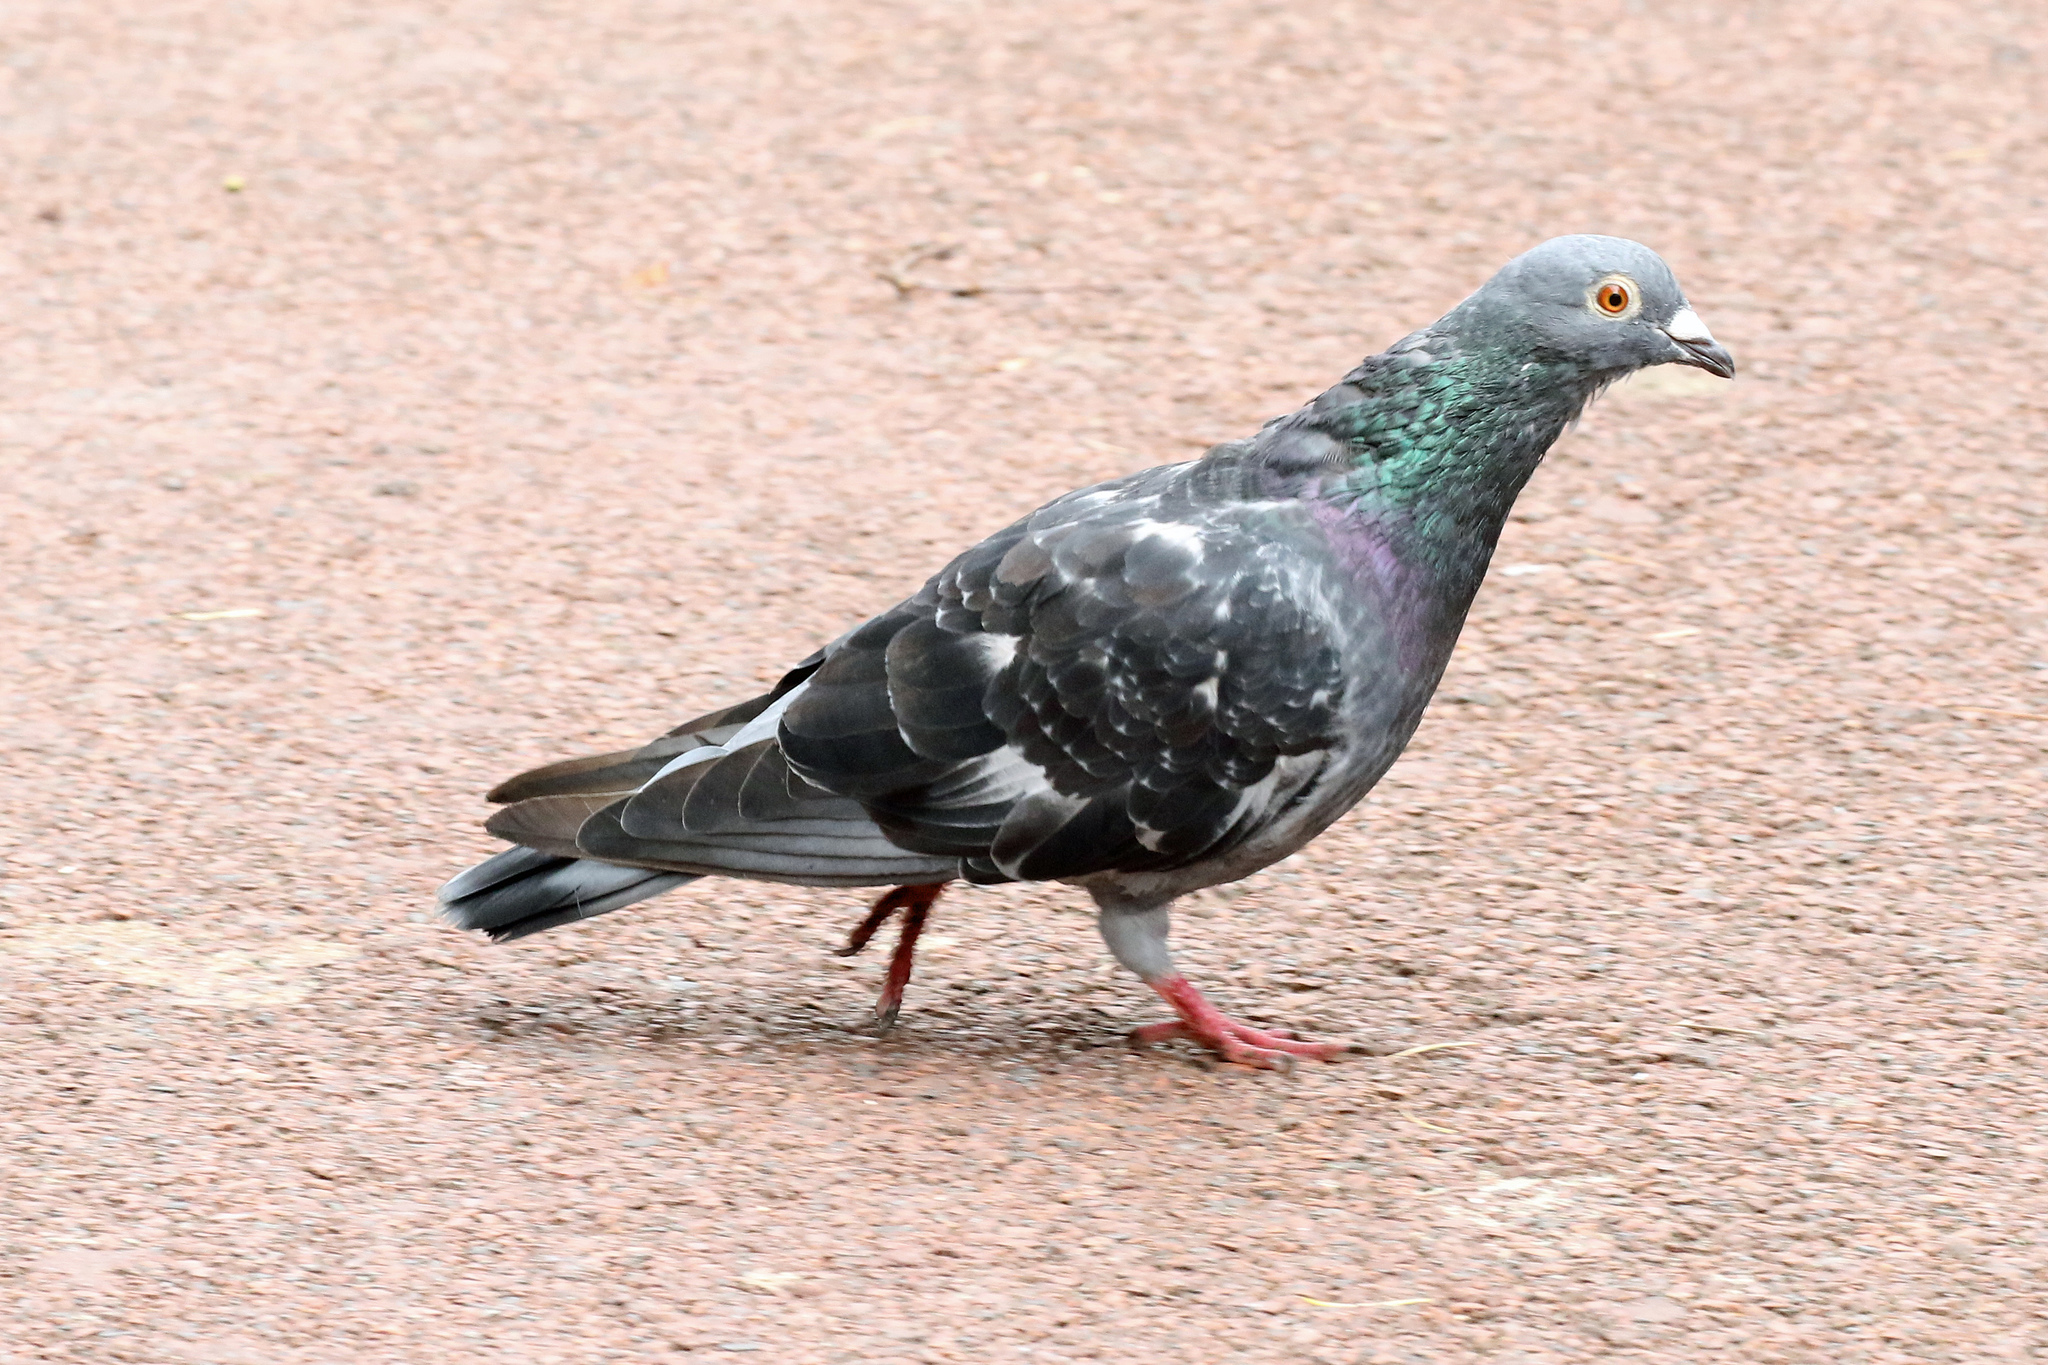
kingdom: Animalia
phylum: Chordata
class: Aves
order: Columbiformes
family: Columbidae
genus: Columba
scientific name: Columba livia
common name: Rock pigeon
